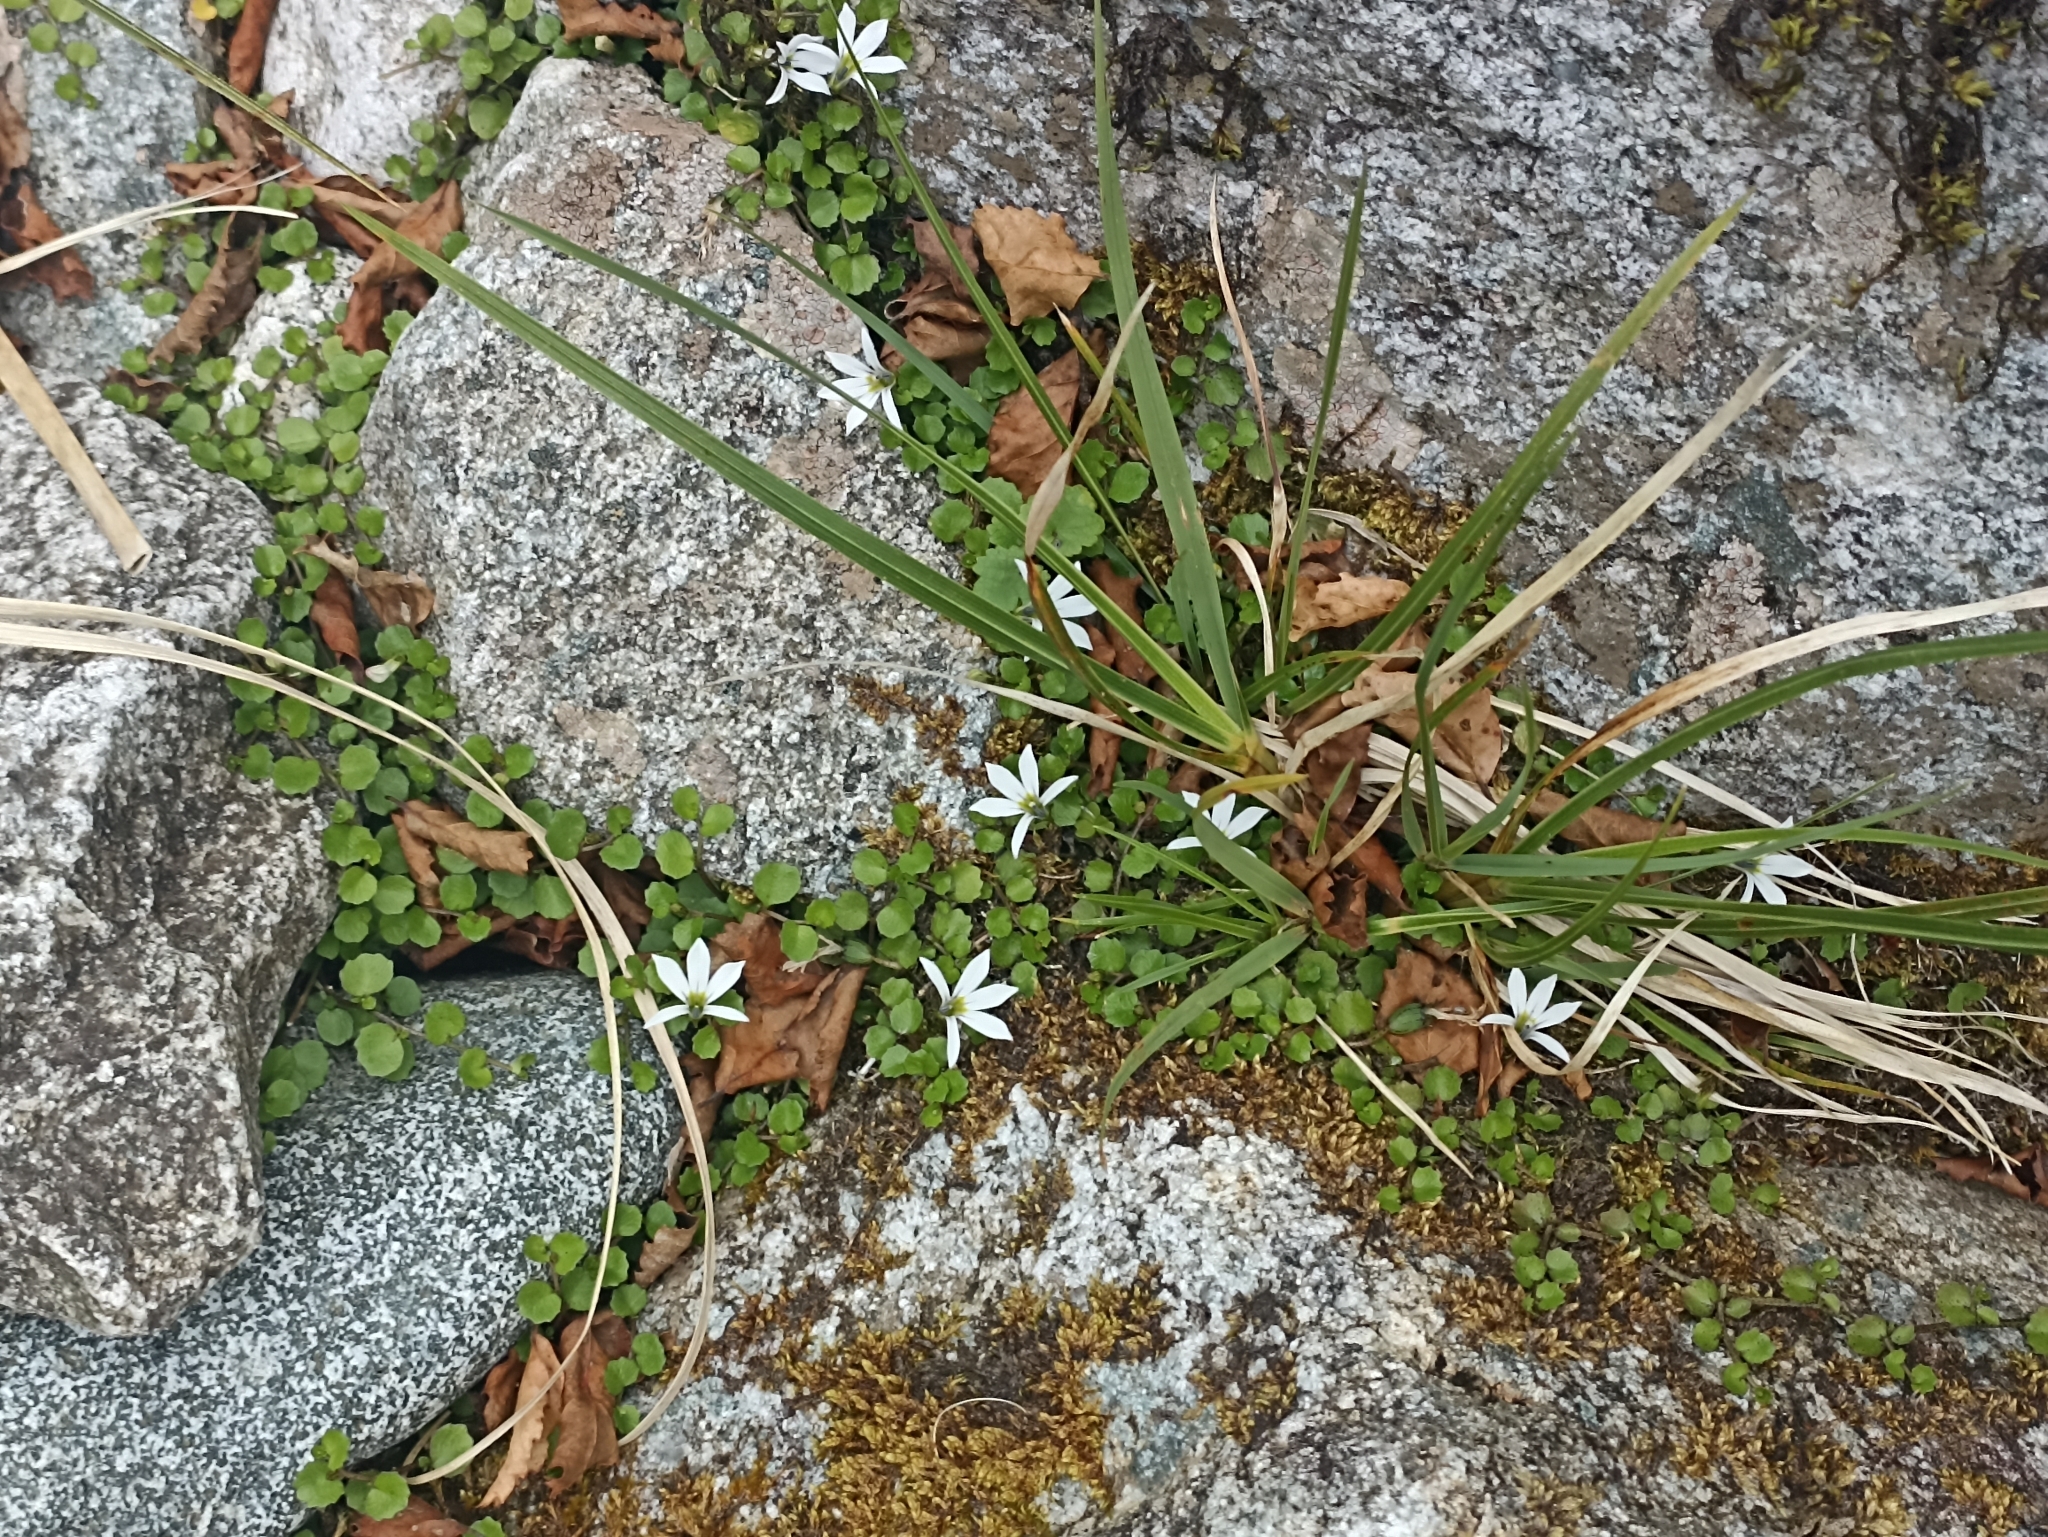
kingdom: Plantae
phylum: Tracheophyta
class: Magnoliopsida
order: Asterales
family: Campanulaceae
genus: Lobelia
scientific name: Lobelia angulata
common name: Lawn lobelia
